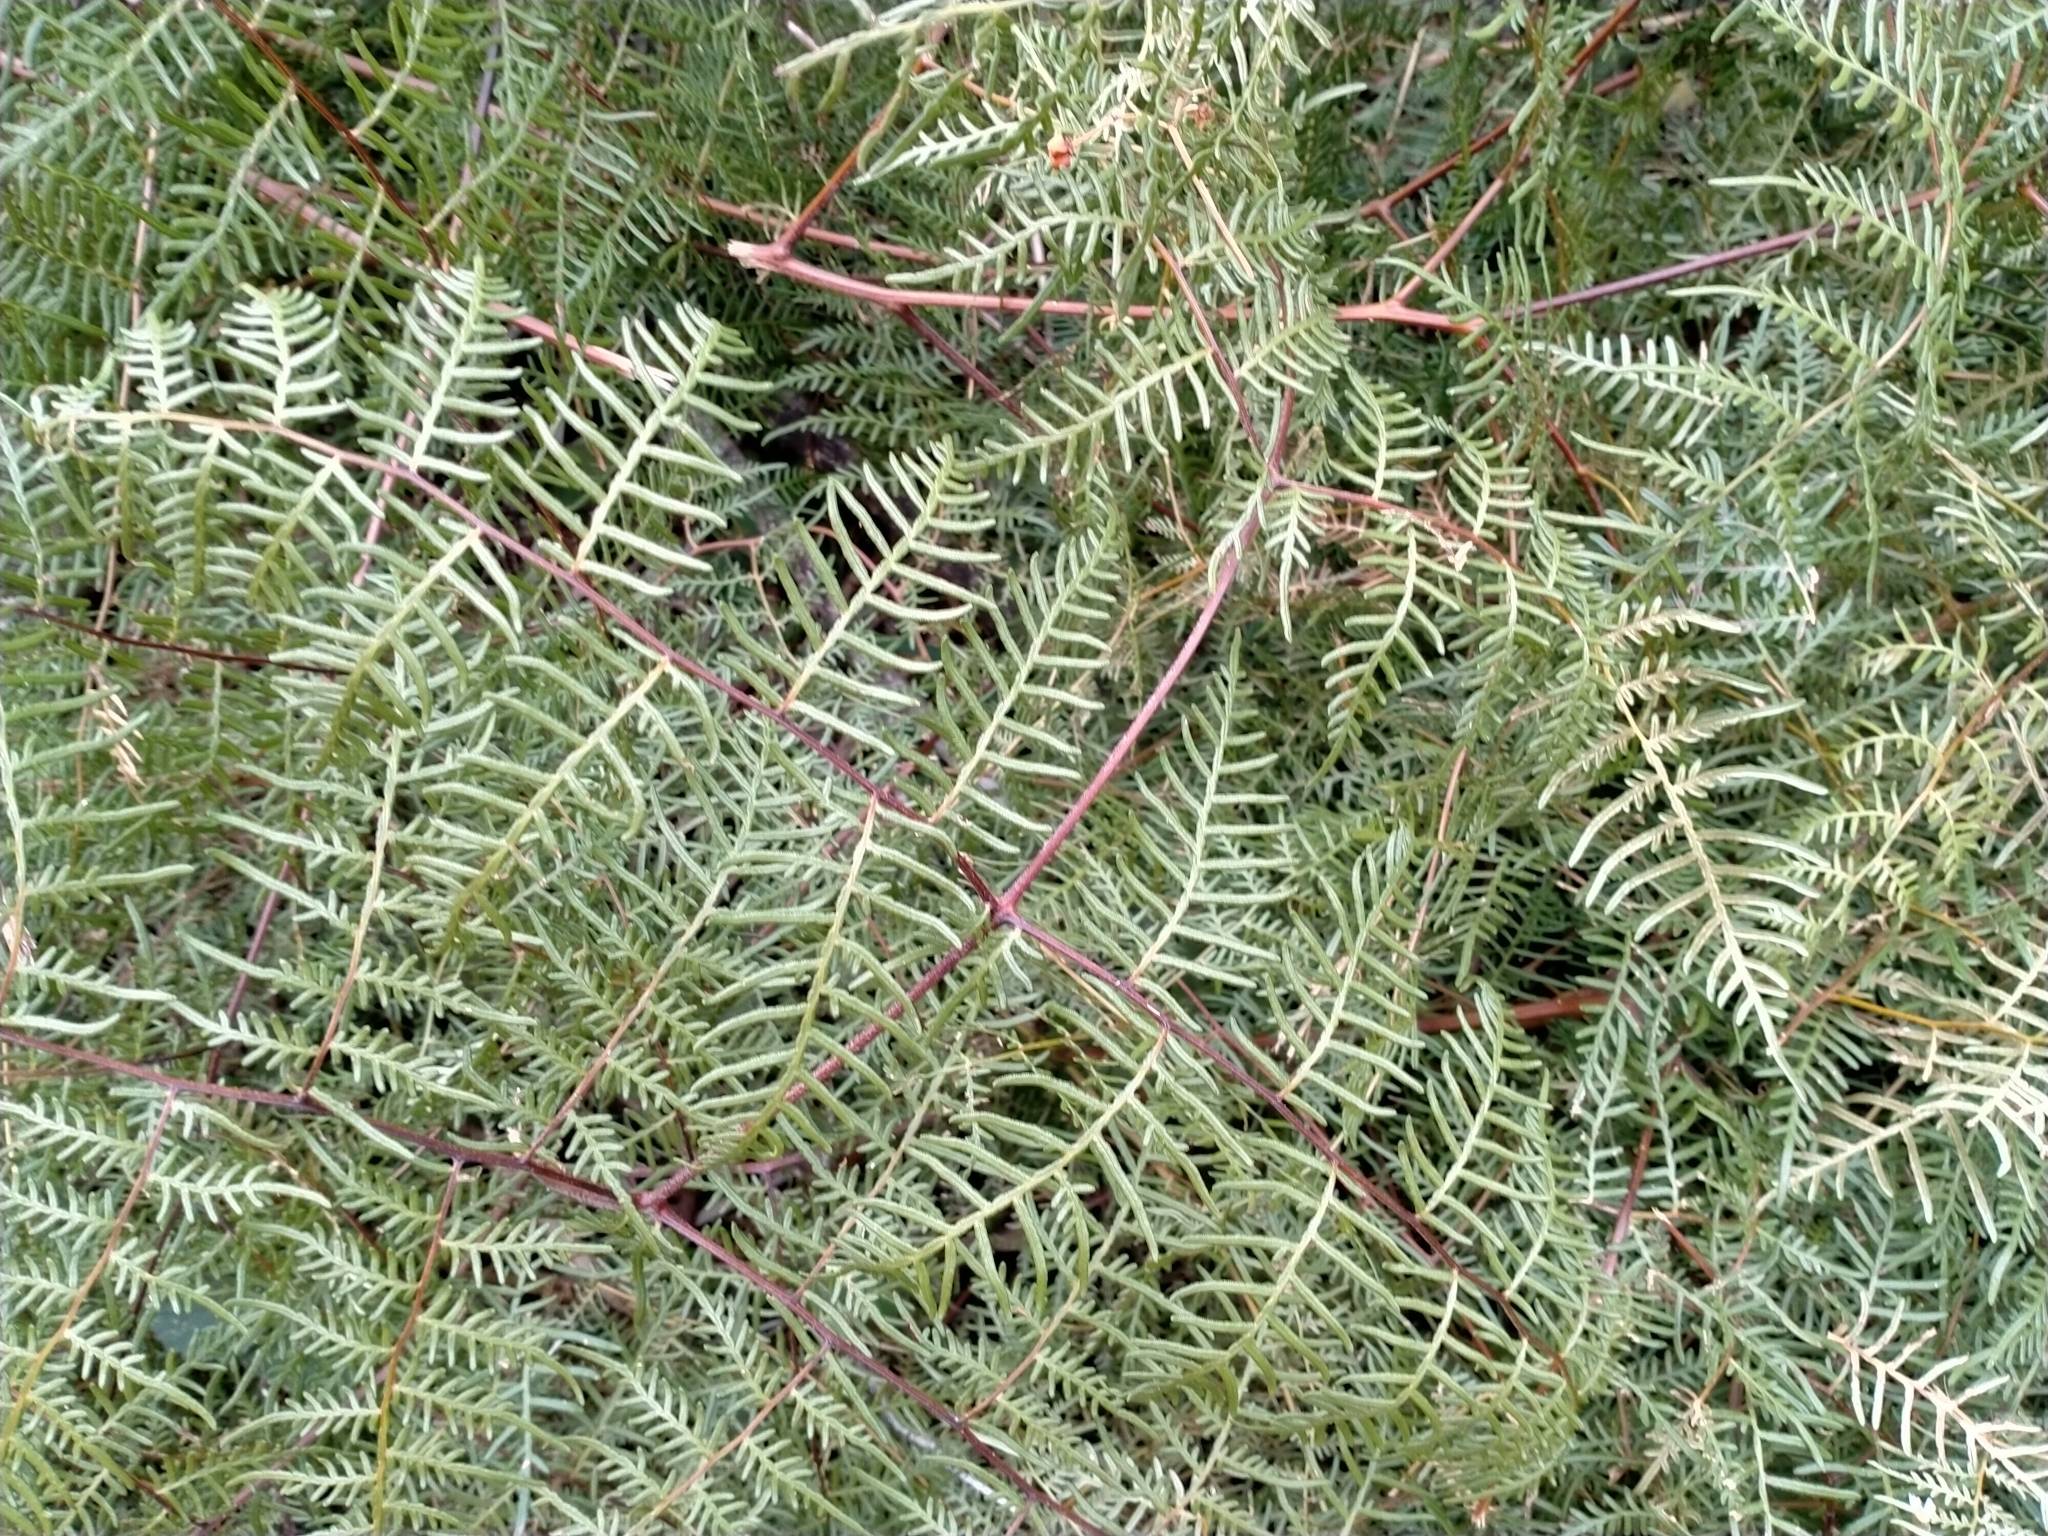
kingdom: Plantae
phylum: Tracheophyta
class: Polypodiopsida
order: Polypodiales
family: Dennstaedtiaceae
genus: Pteridium
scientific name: Pteridium esculentum
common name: Bracken fern
